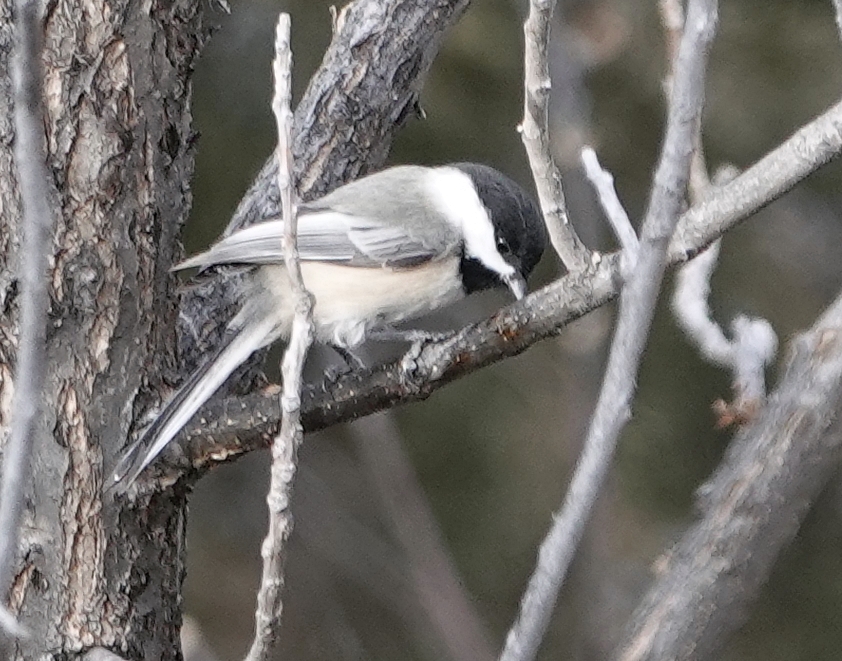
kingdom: Animalia
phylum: Chordata
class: Aves
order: Passeriformes
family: Paridae
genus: Poecile
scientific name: Poecile atricapillus
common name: Black-capped chickadee
